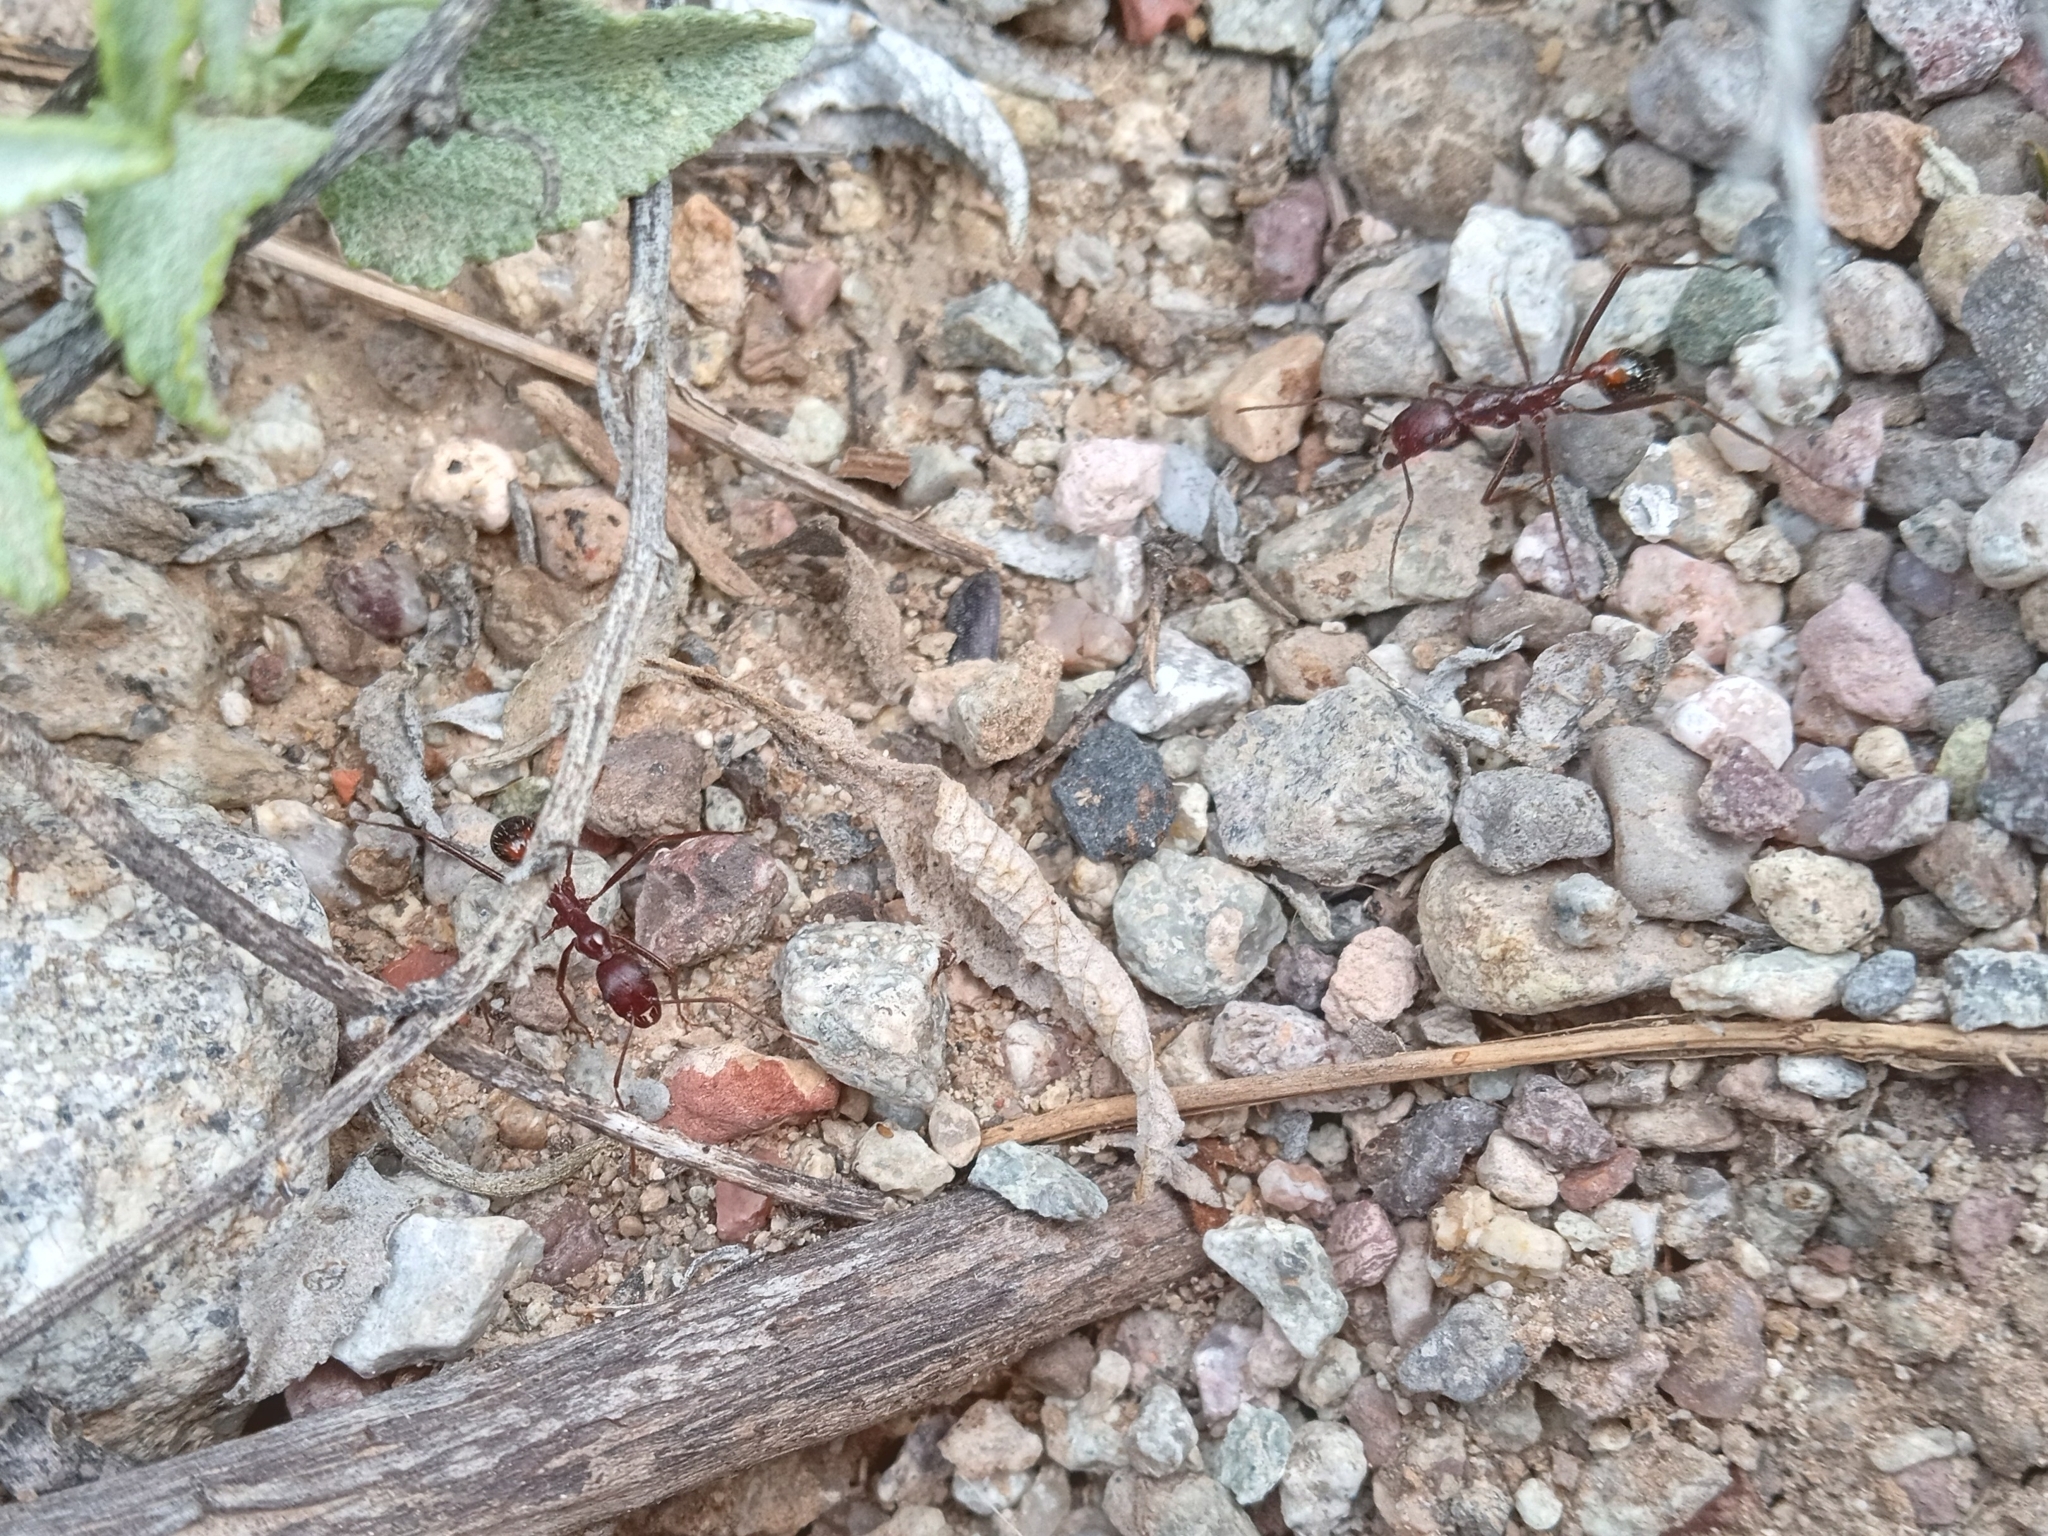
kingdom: Animalia
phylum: Arthropoda
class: Insecta
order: Hymenoptera
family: Formicidae
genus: Novomessor
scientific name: Novomessor cockerelli
